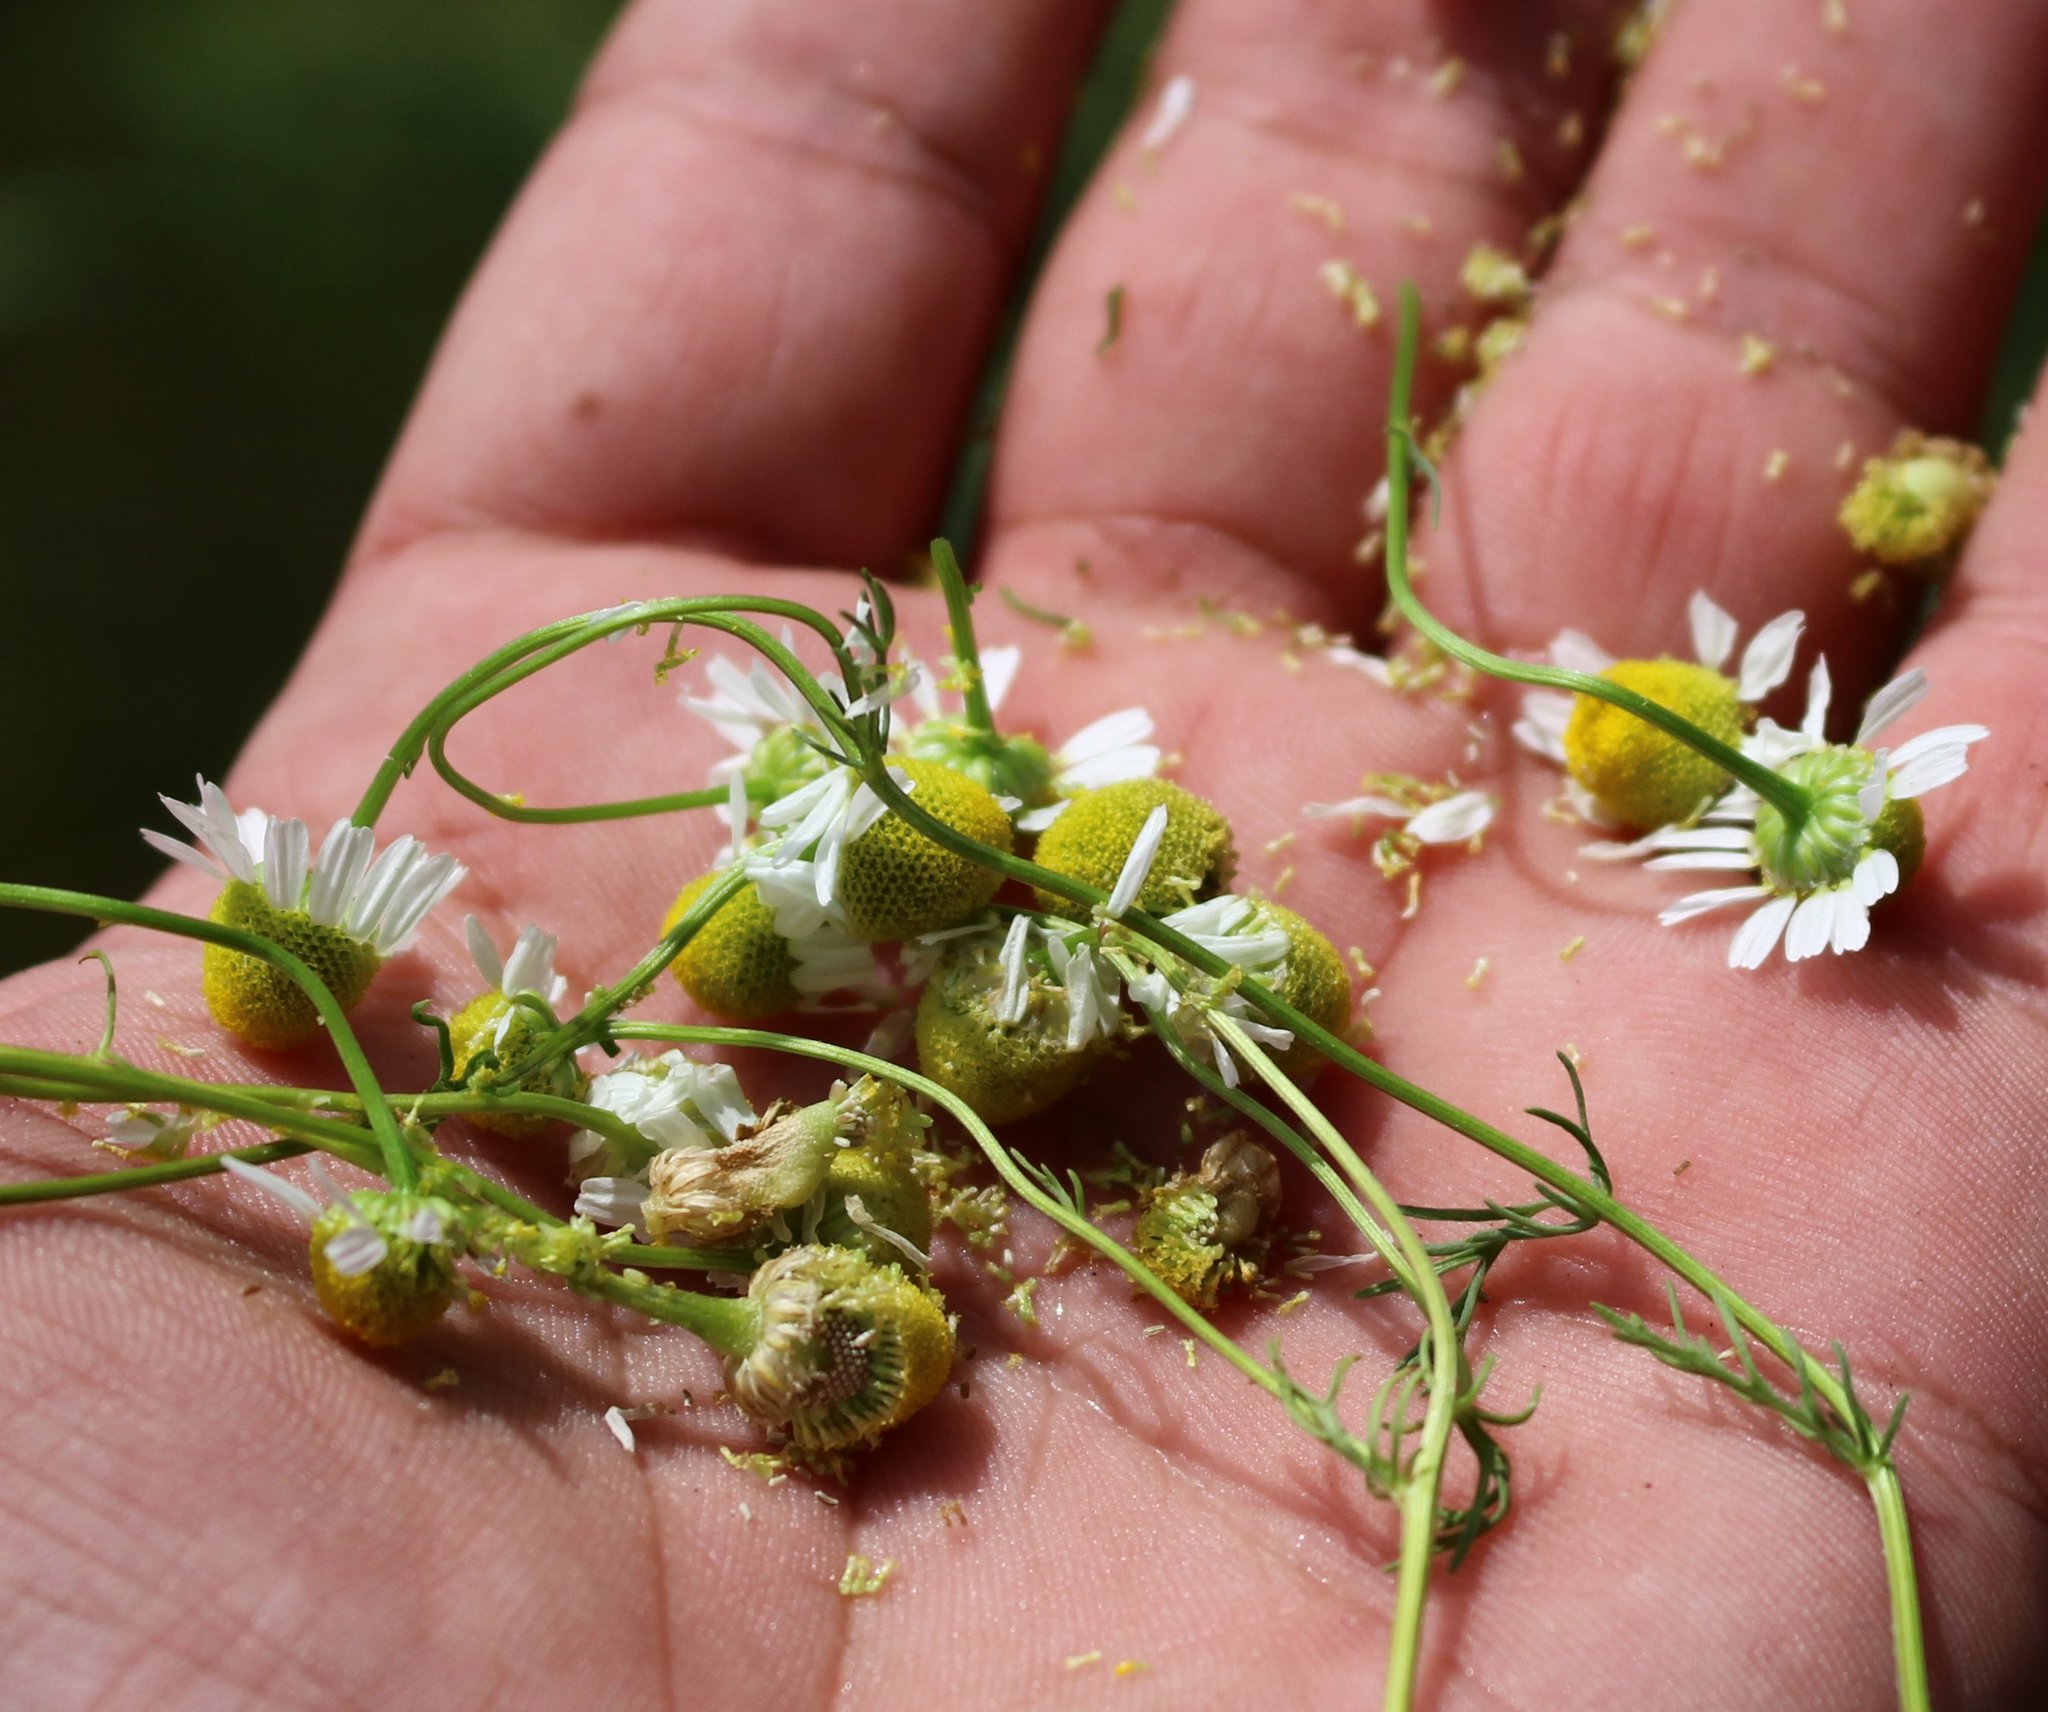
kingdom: Plantae
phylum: Tracheophyta
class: Magnoliopsida
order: Asterales
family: Asteraceae
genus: Matricaria
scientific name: Matricaria chamomilla
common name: Scented mayweed
